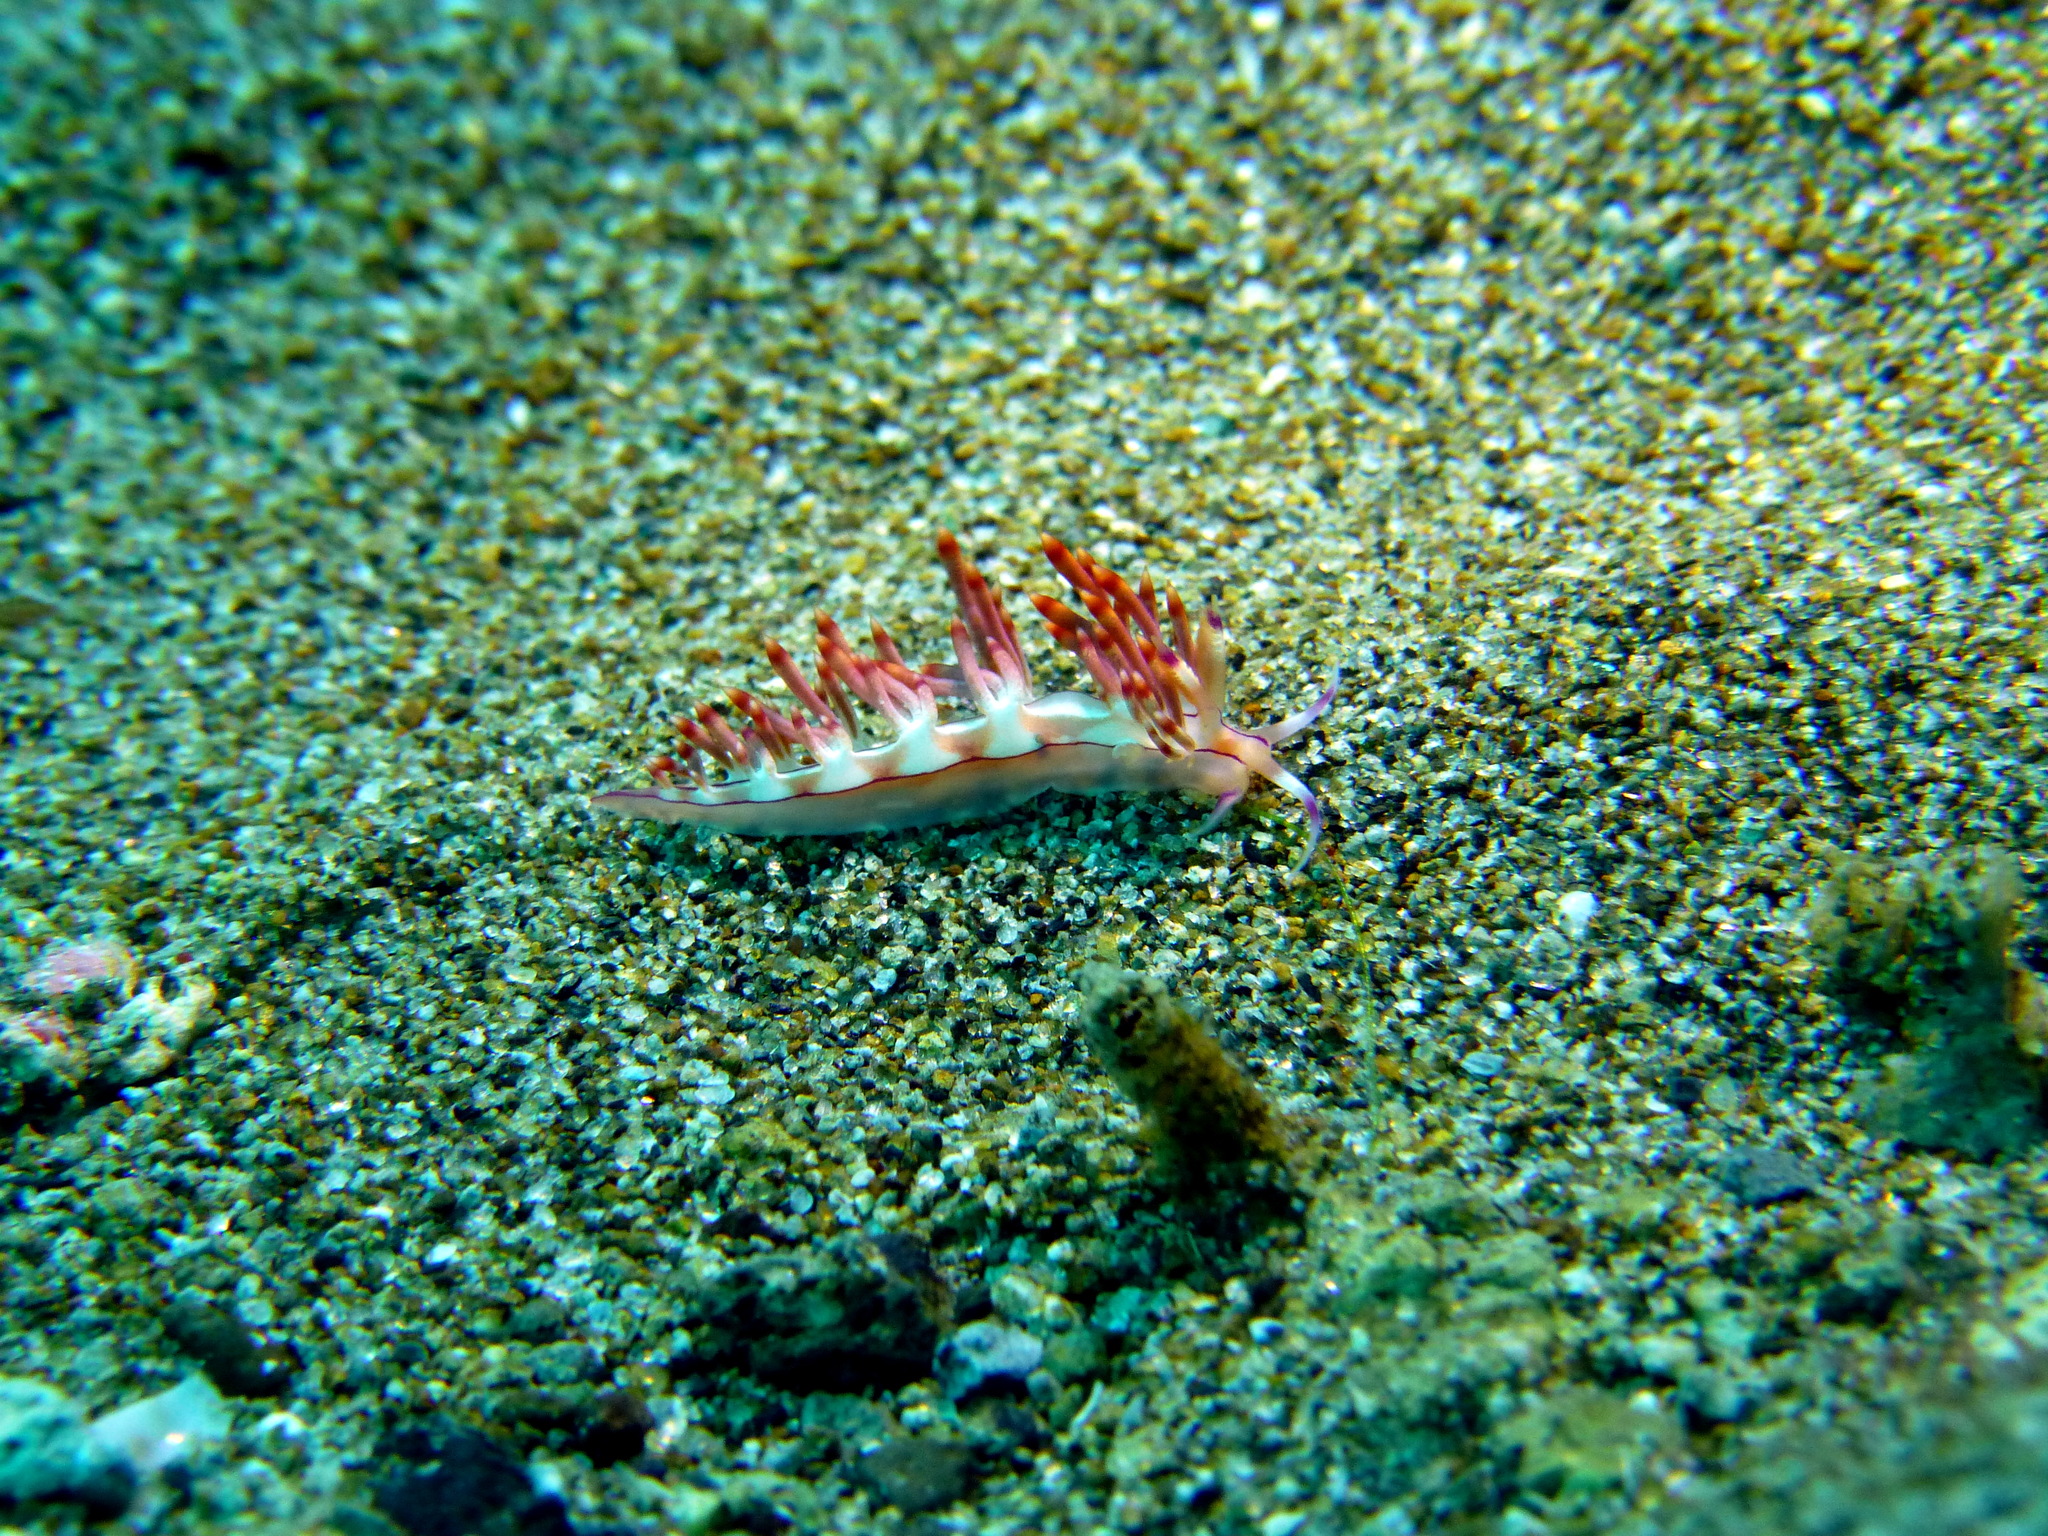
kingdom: Animalia
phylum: Mollusca
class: Gastropoda
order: Nudibranchia
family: Flabellinidae
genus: Coryphellina
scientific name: Coryphellina flamma
